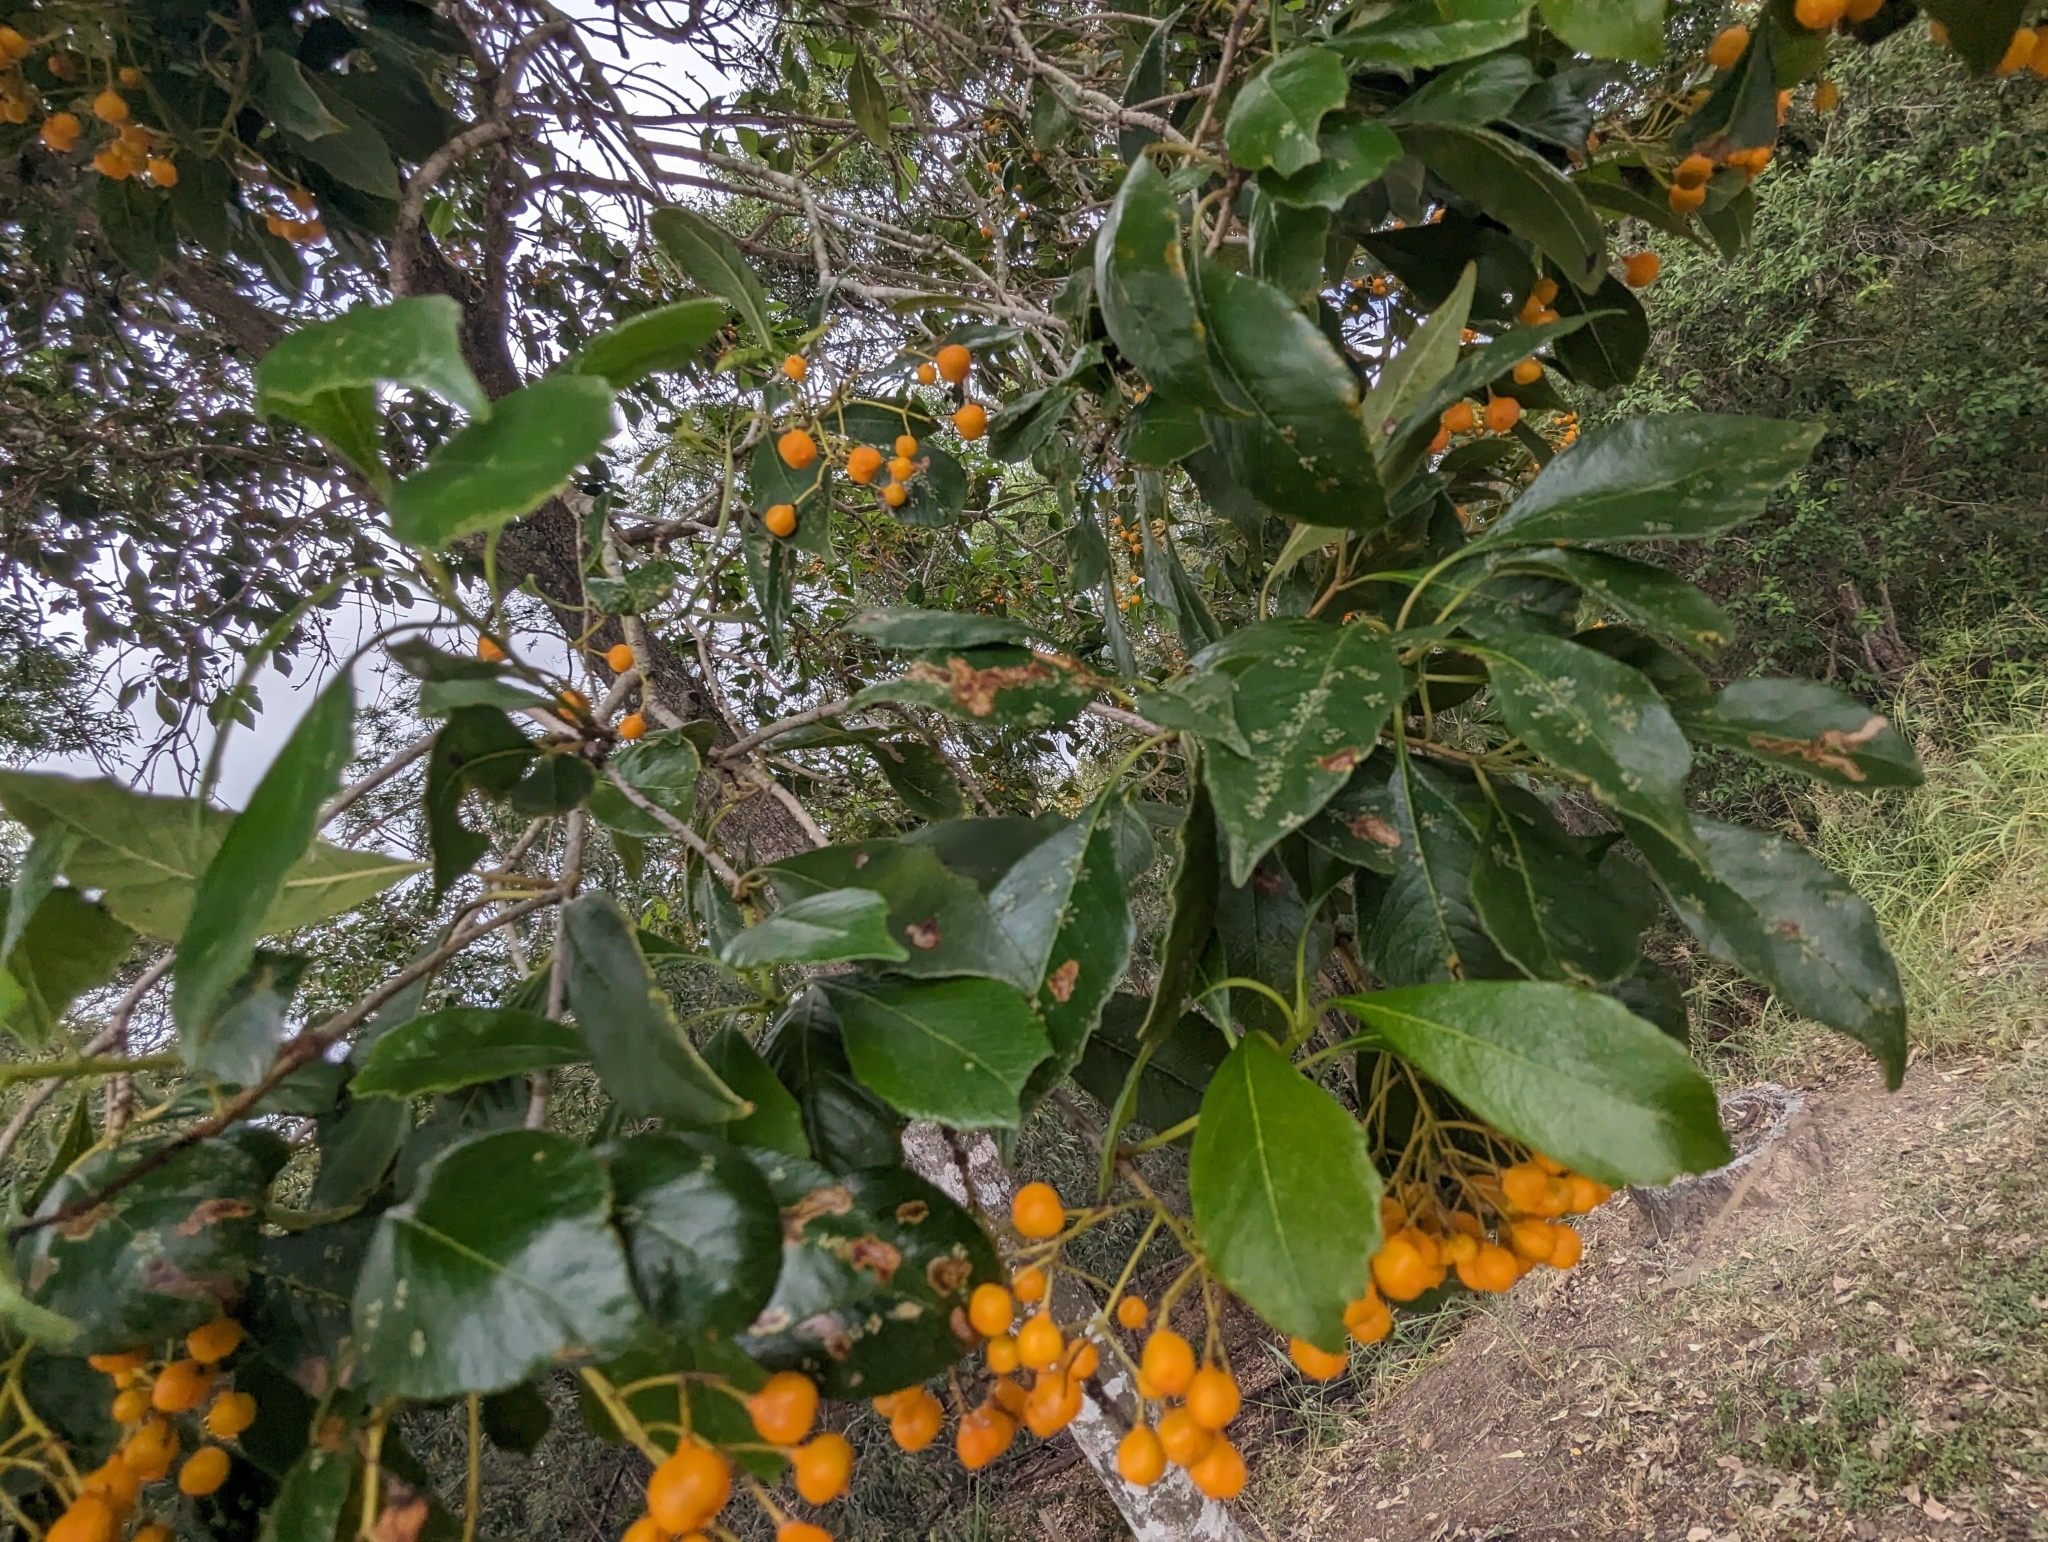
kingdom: Plantae
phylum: Tracheophyta
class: Magnoliopsida
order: Apiales
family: Pittosporaceae
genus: Auranticarpa
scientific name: Auranticarpa rhombifolia
